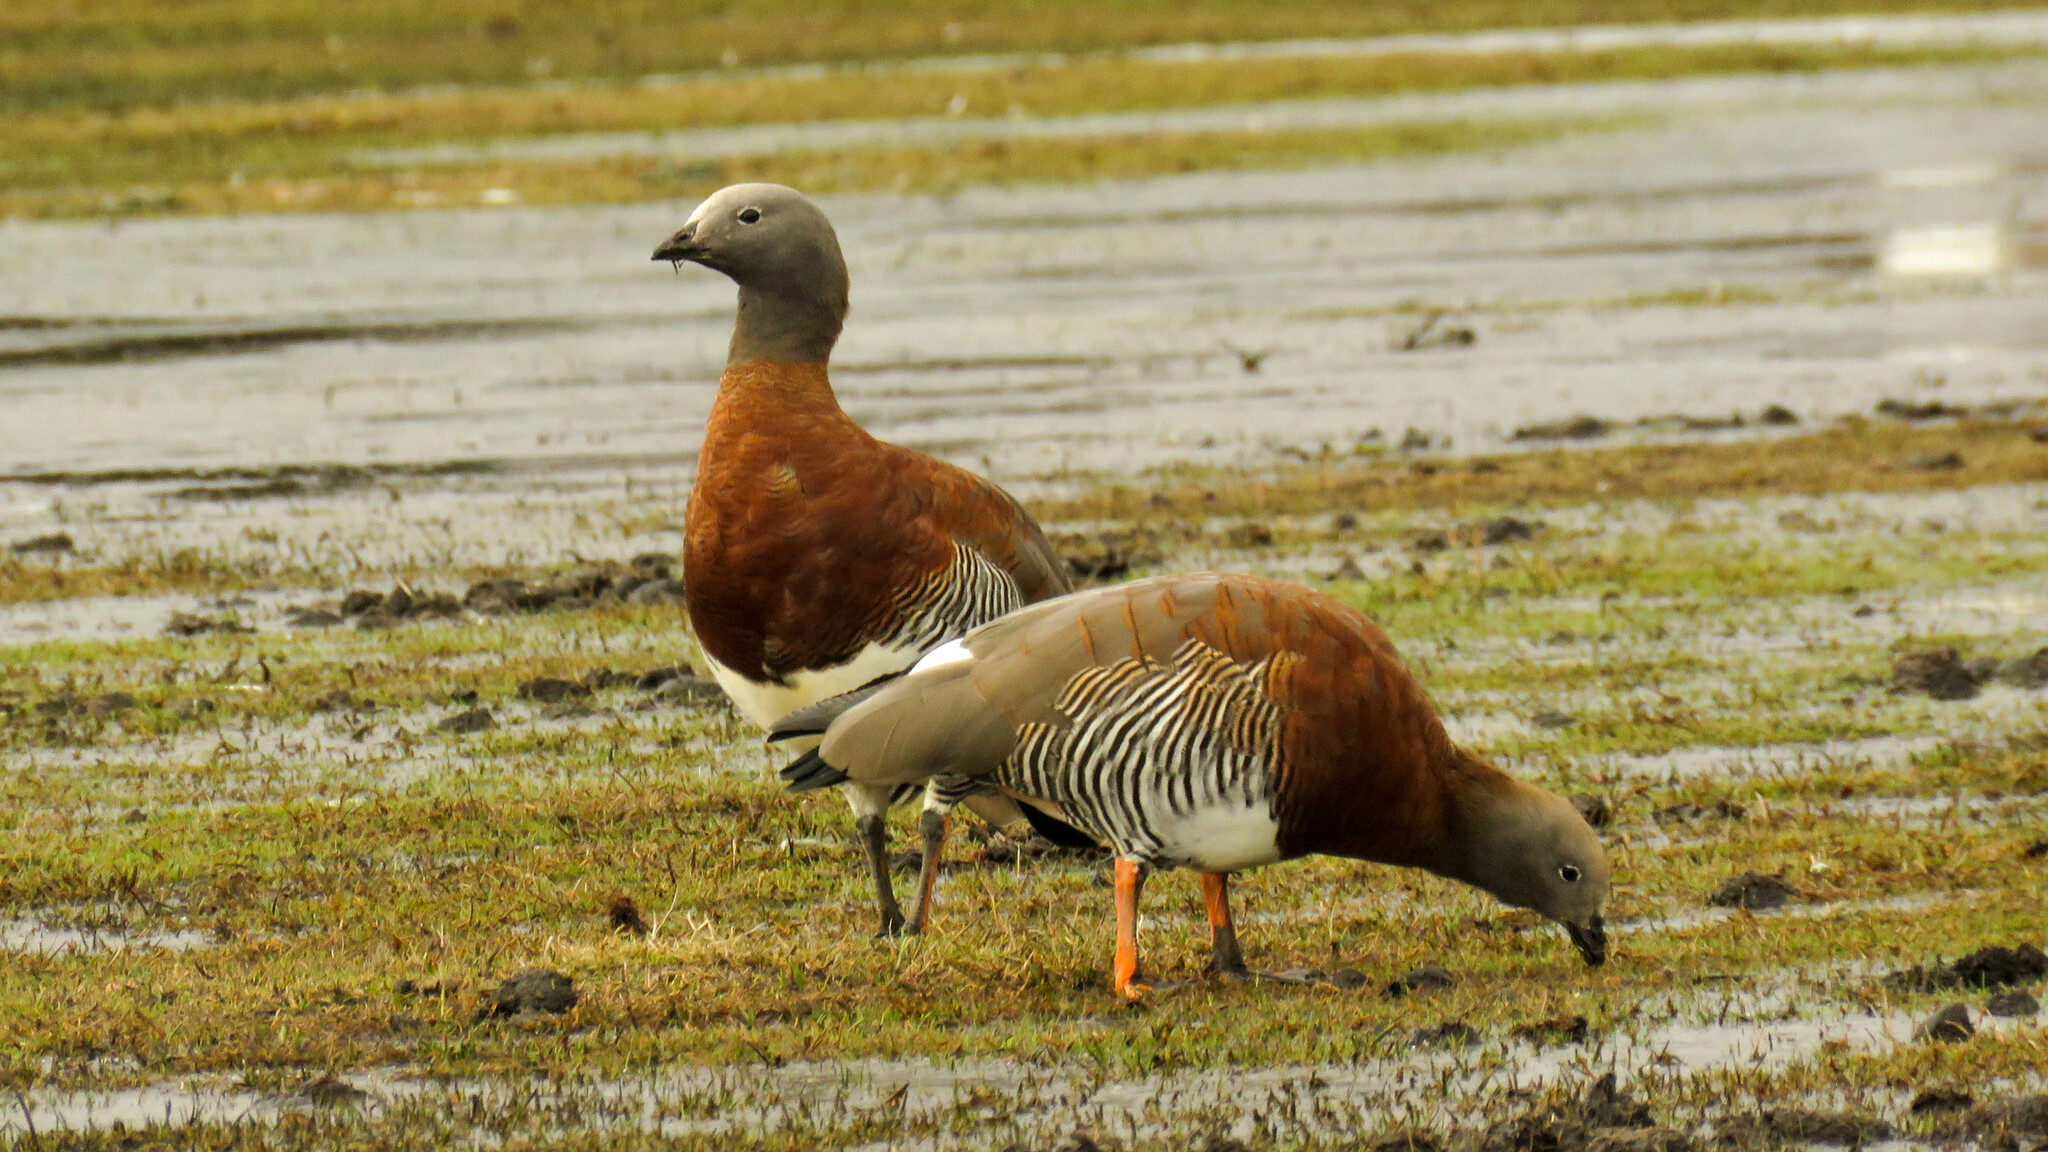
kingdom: Animalia
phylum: Chordata
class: Aves
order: Anseriformes
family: Anatidae
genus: Chloephaga
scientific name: Chloephaga poliocephala
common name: Ashy-headed goose
